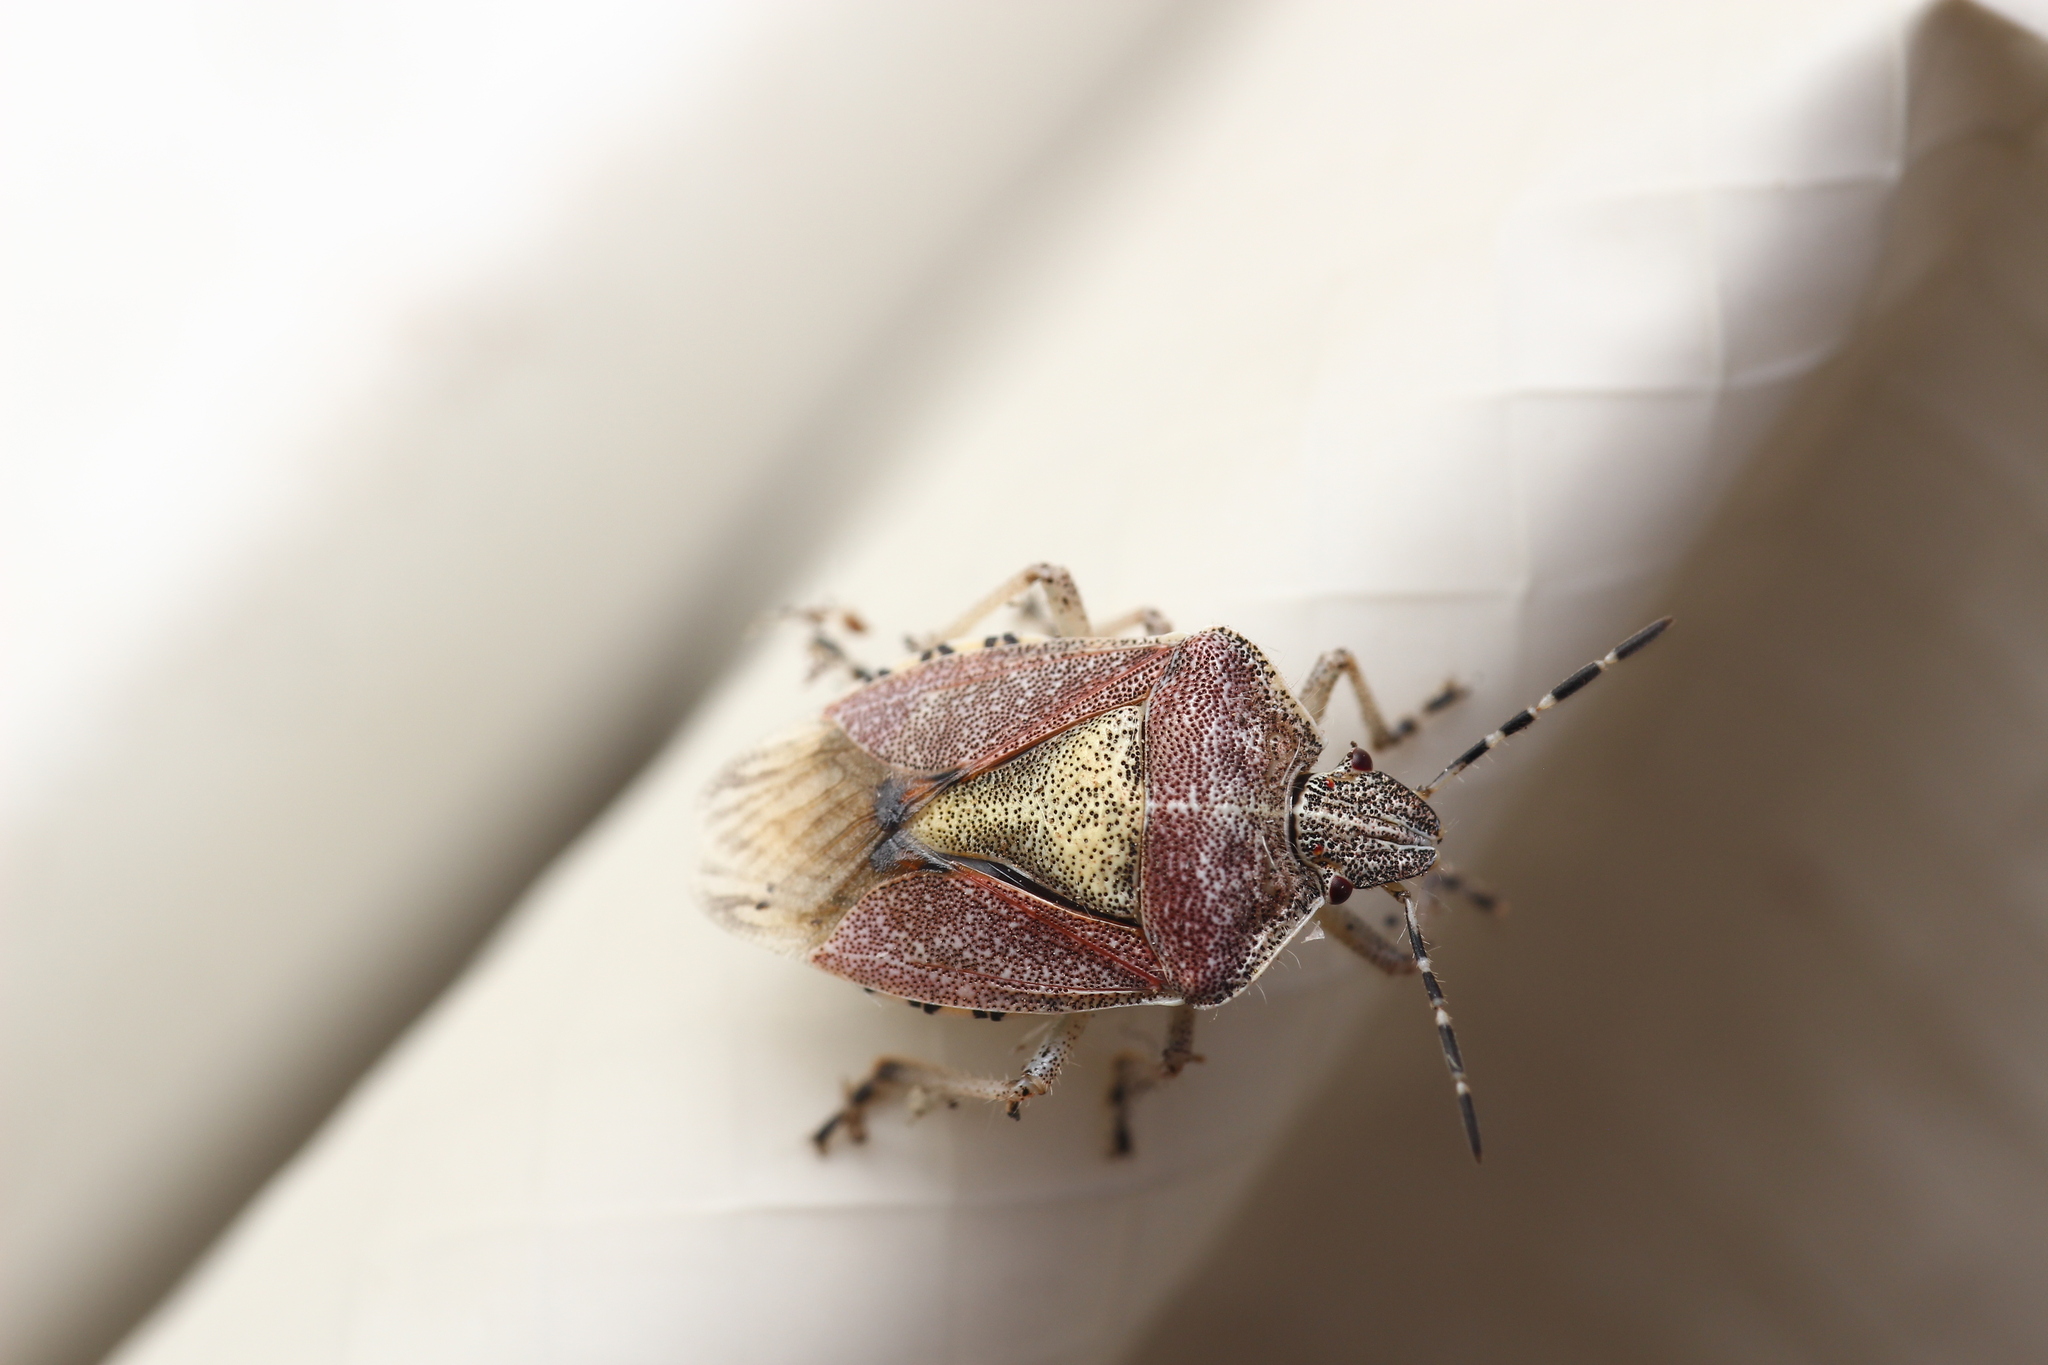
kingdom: Animalia
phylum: Arthropoda
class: Insecta
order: Hemiptera
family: Pentatomidae
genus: Dolycoris
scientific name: Dolycoris baccarum
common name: Sloe bug
